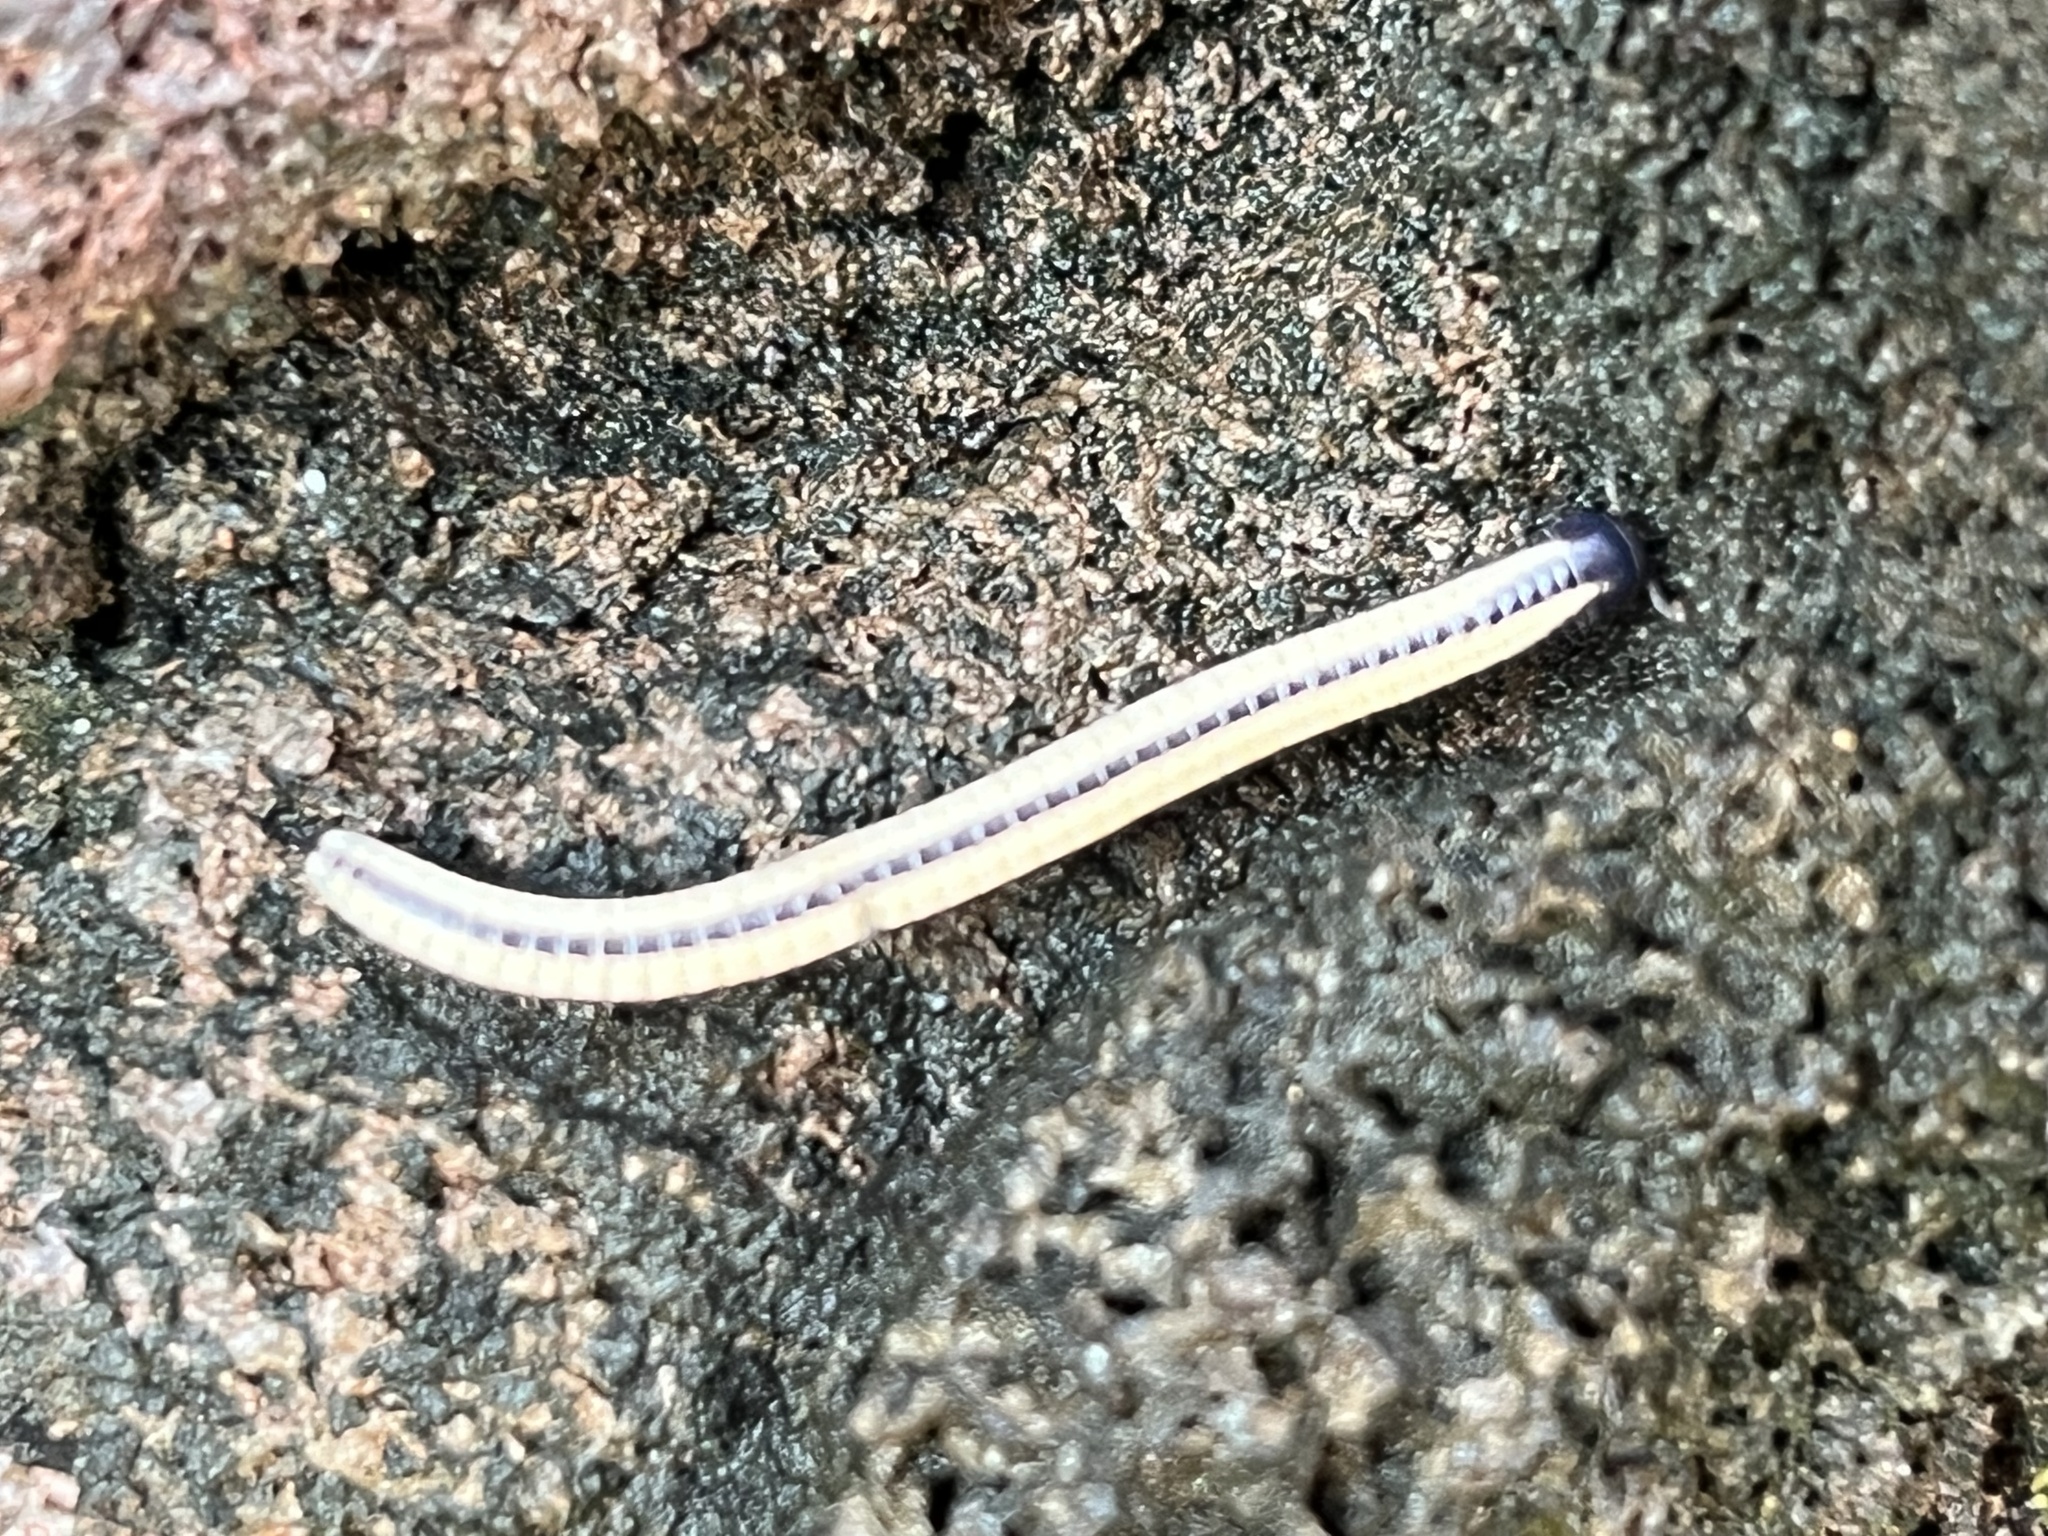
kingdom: Animalia
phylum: Arthropoda
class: Diplopoda
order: Spirobolida
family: Spirobolellidae
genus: Spirobolellus
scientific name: Spirobolellus immigrans
